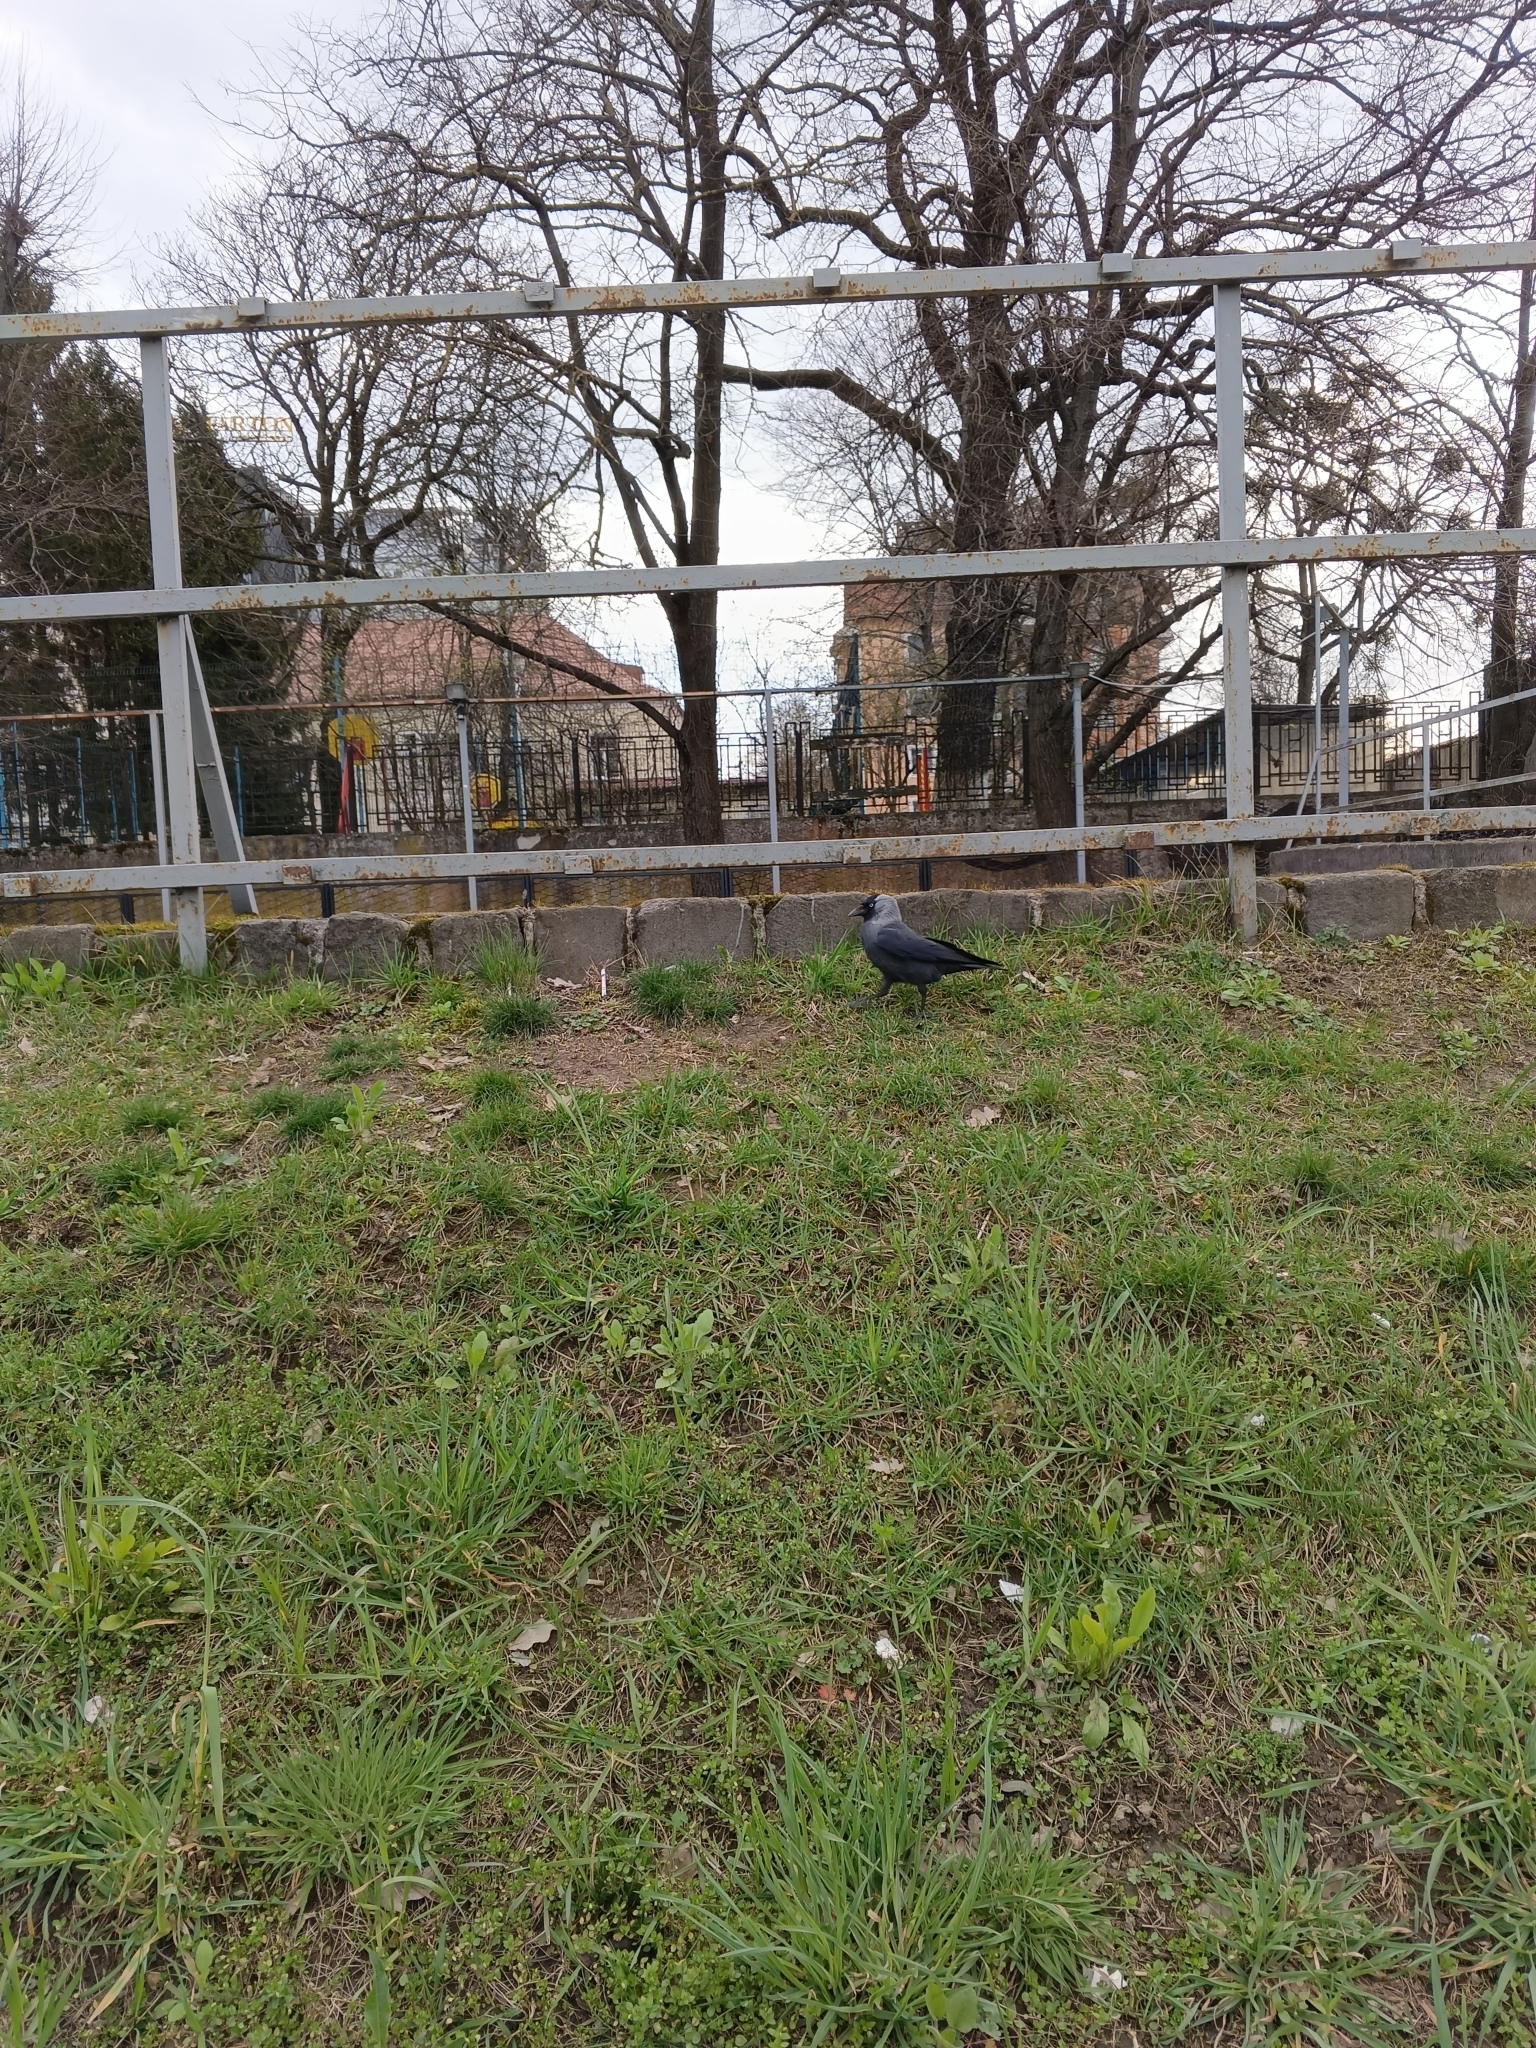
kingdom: Animalia
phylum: Chordata
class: Aves
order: Passeriformes
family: Corvidae
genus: Coloeus
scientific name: Coloeus monedula
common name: Western jackdaw
